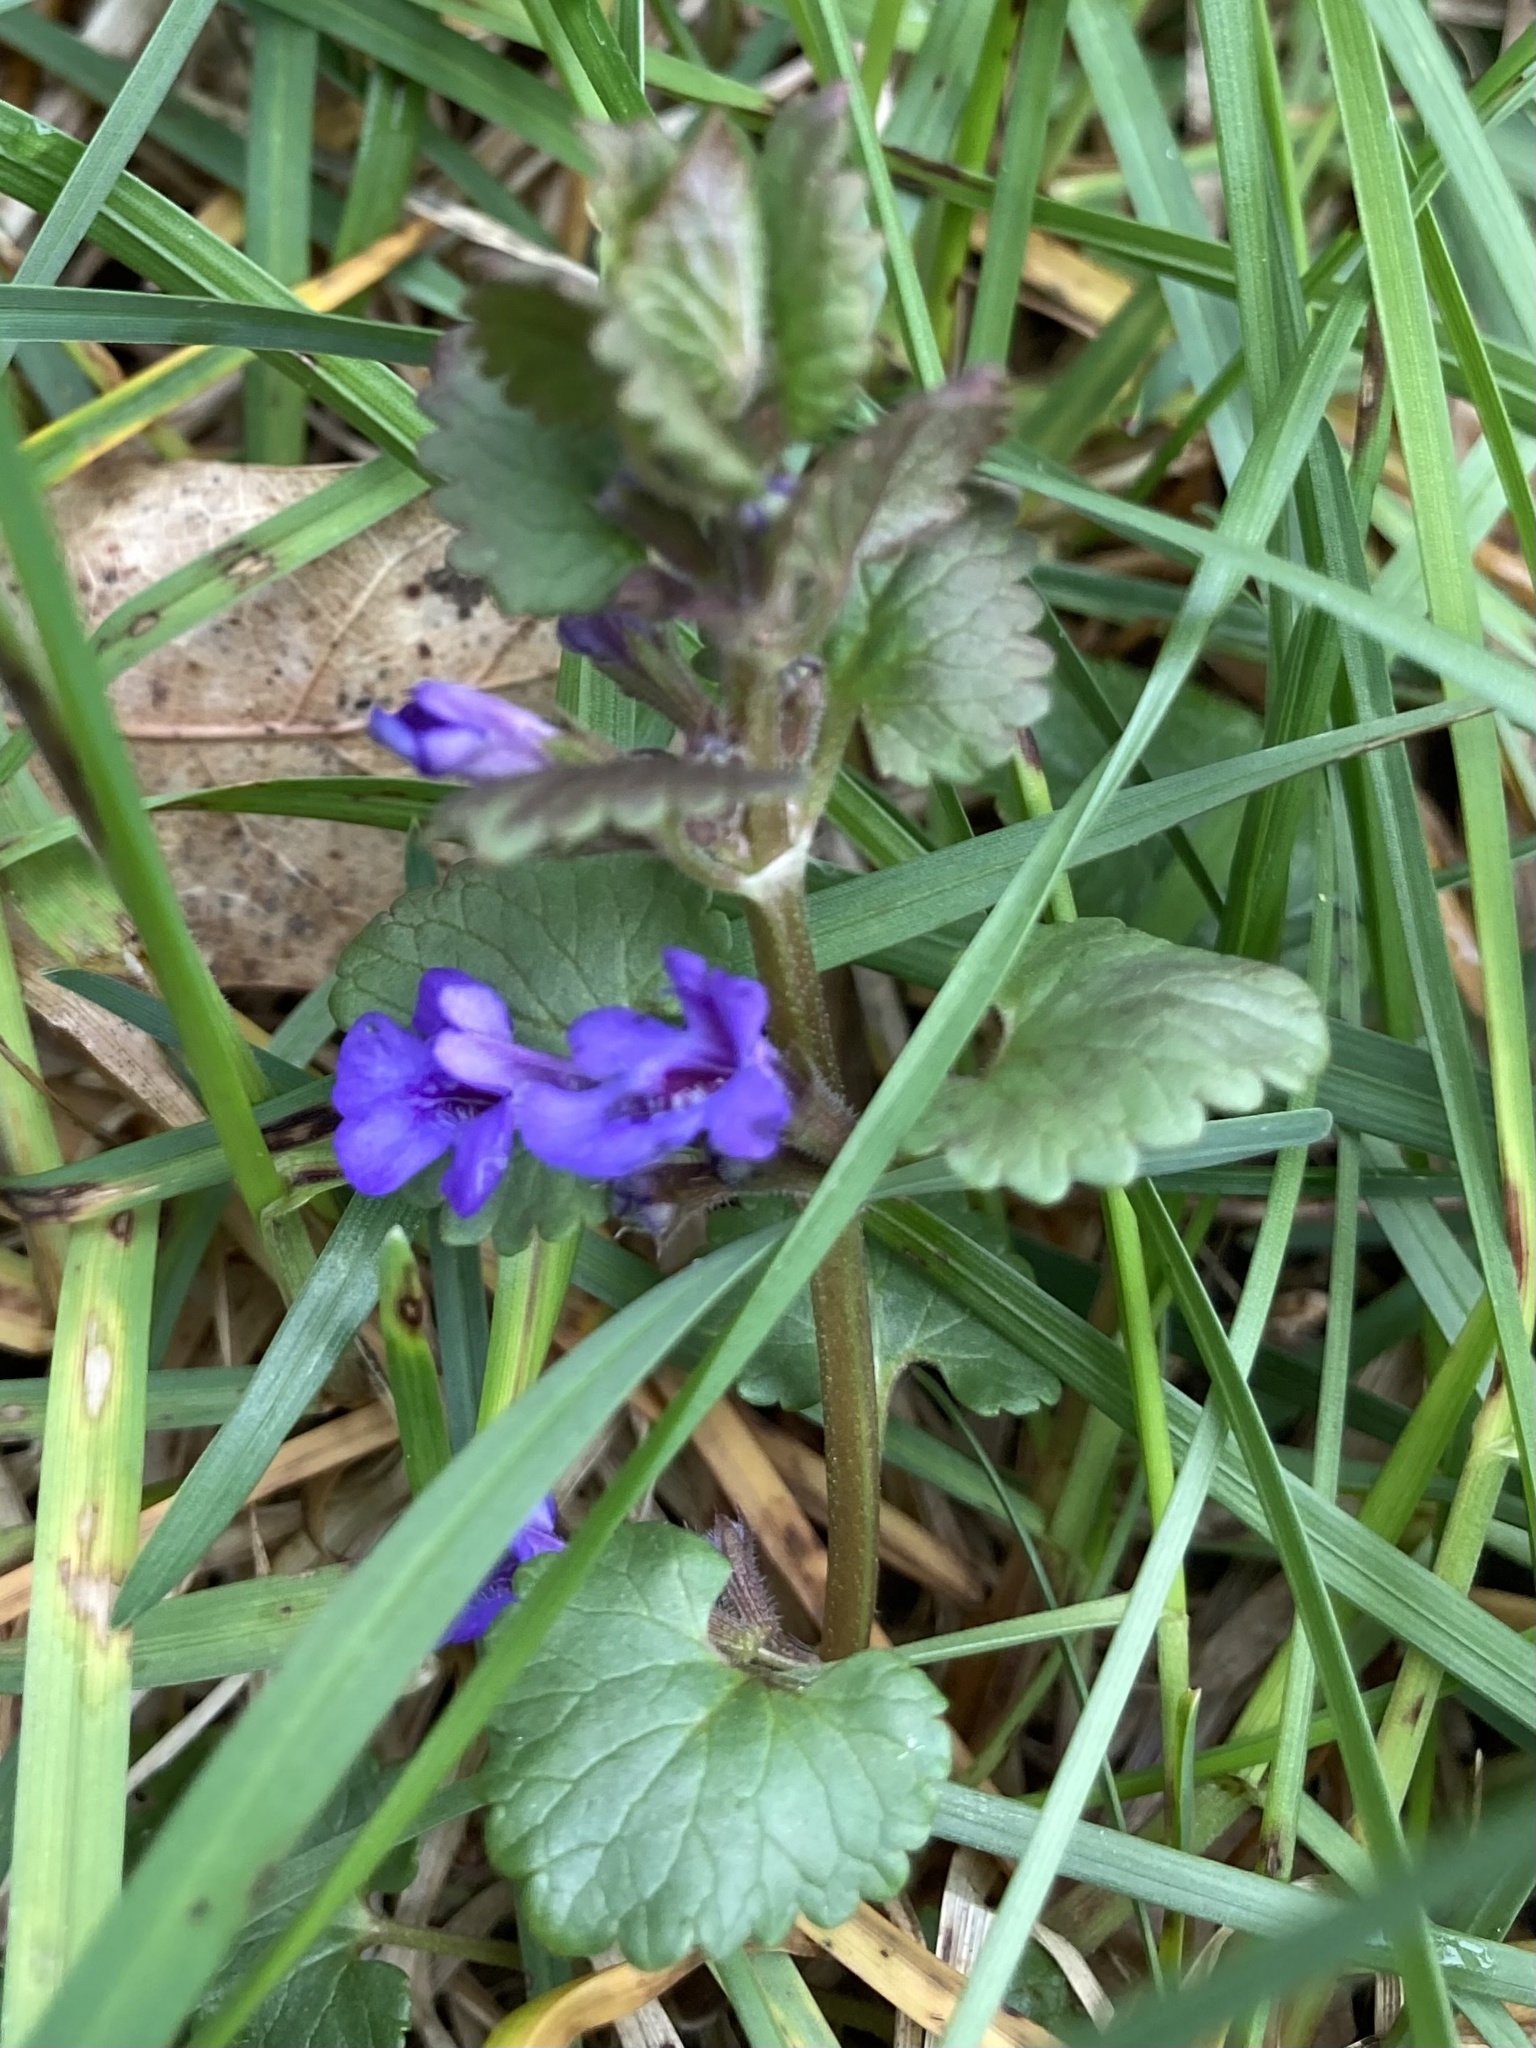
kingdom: Plantae
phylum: Tracheophyta
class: Magnoliopsida
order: Lamiales
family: Lamiaceae
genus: Glechoma
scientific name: Glechoma hederacea
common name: Ground ivy
